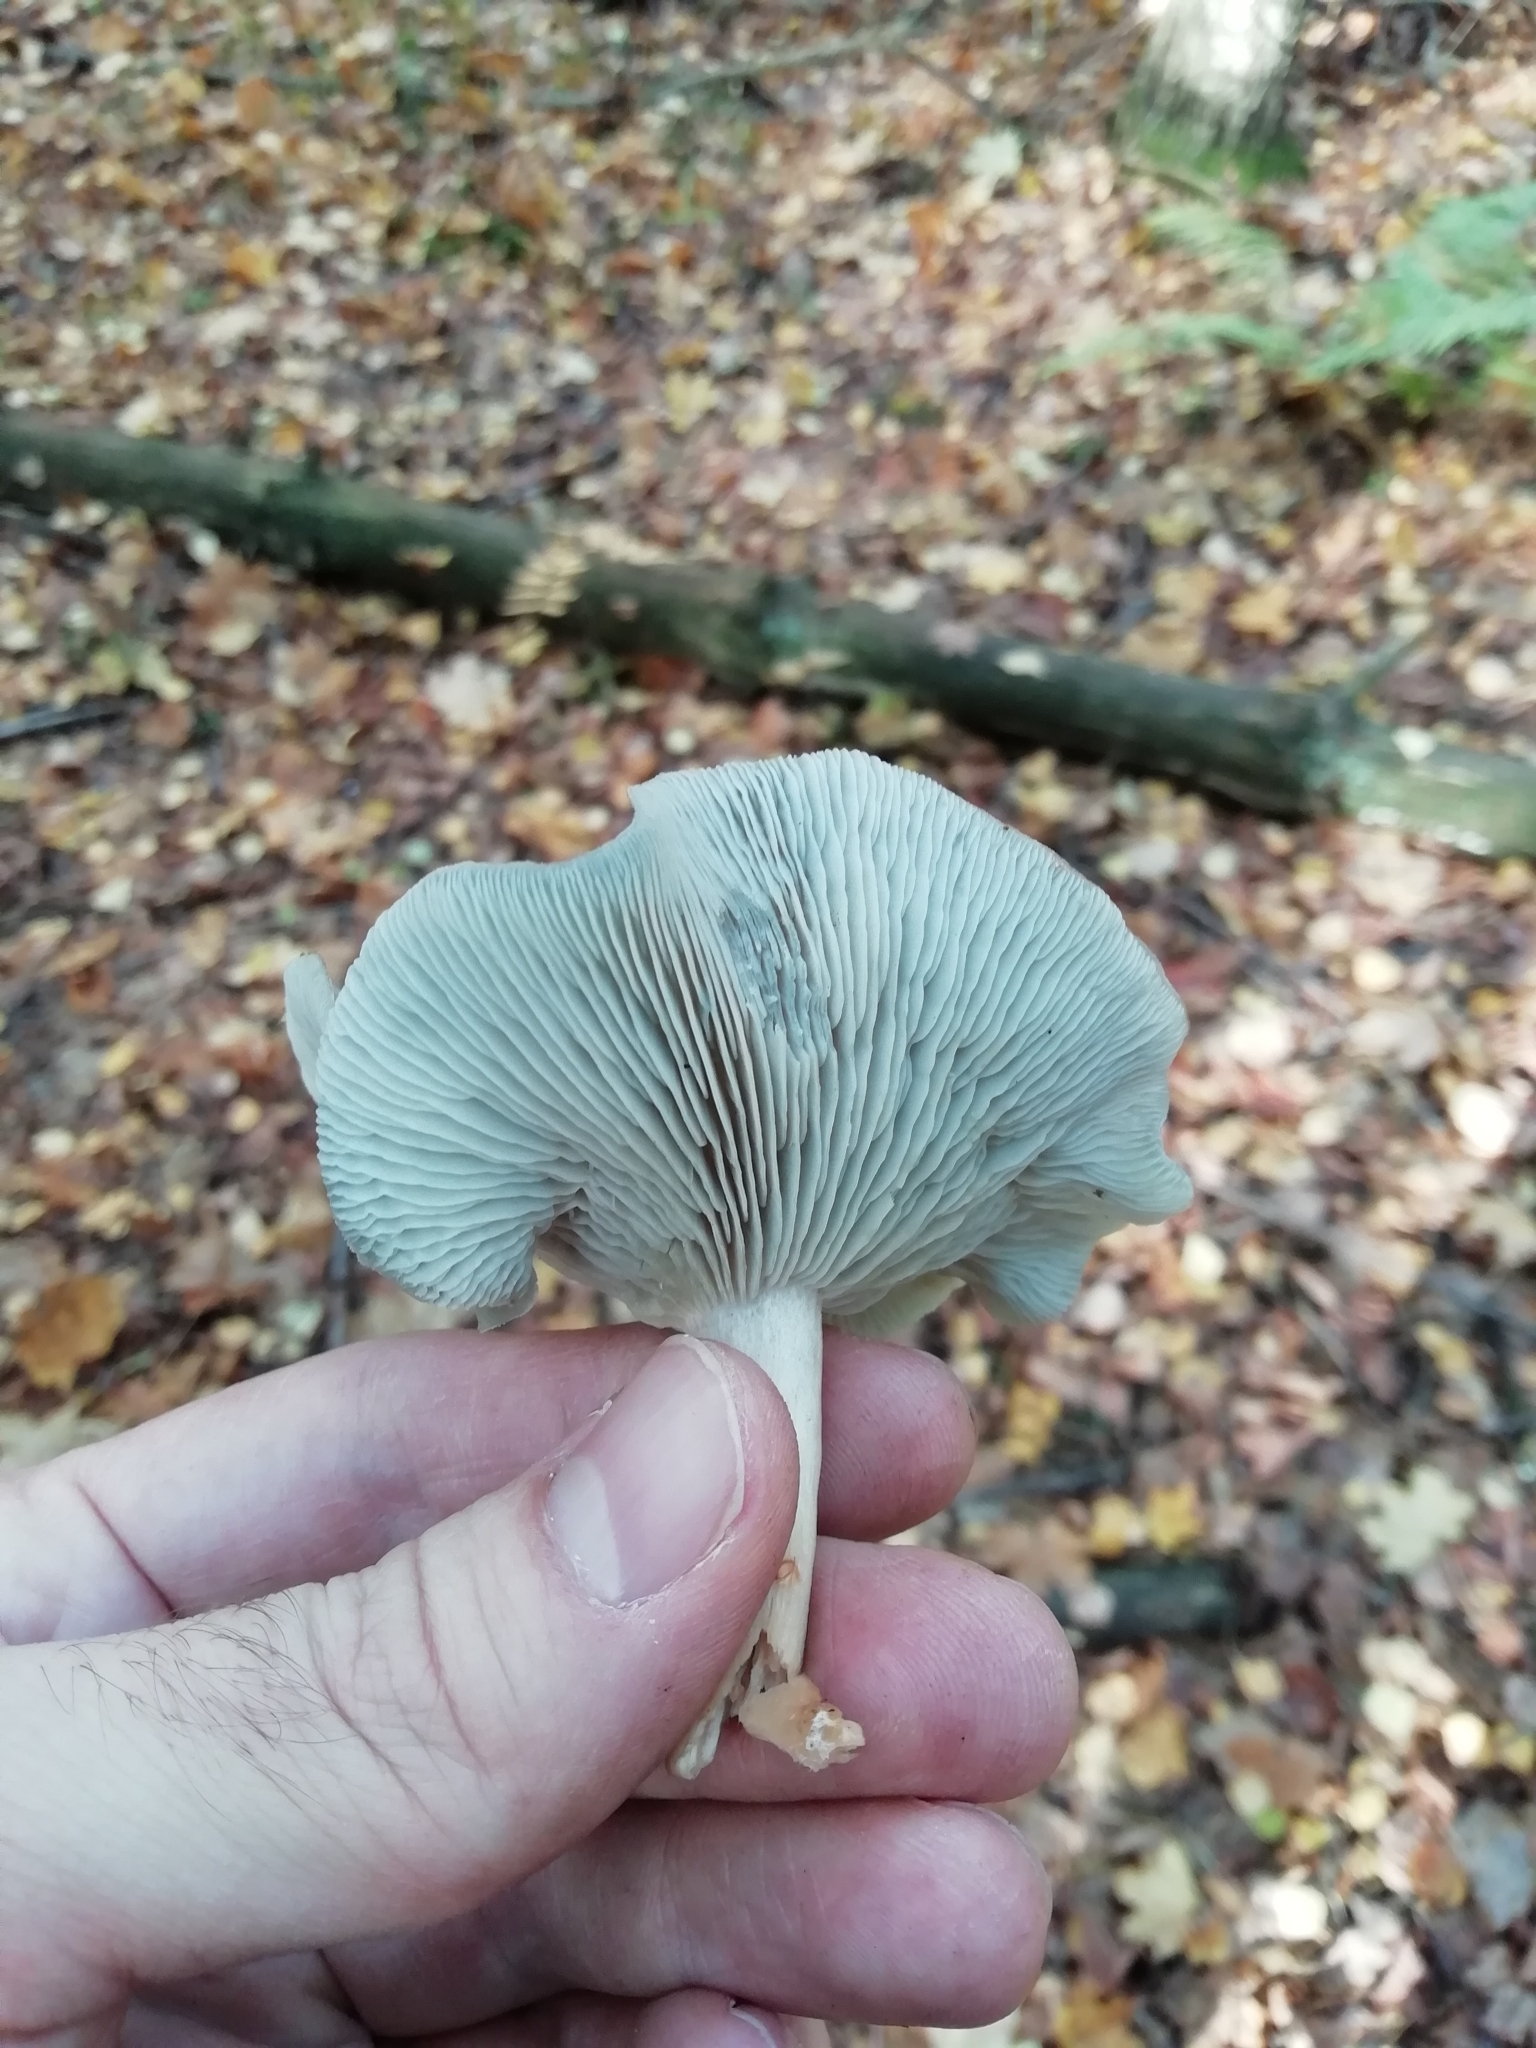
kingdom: Fungi
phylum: Basidiomycota
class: Agaricomycetes
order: Agaricales
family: Tricholomataceae
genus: Collybia
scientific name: Collybia
